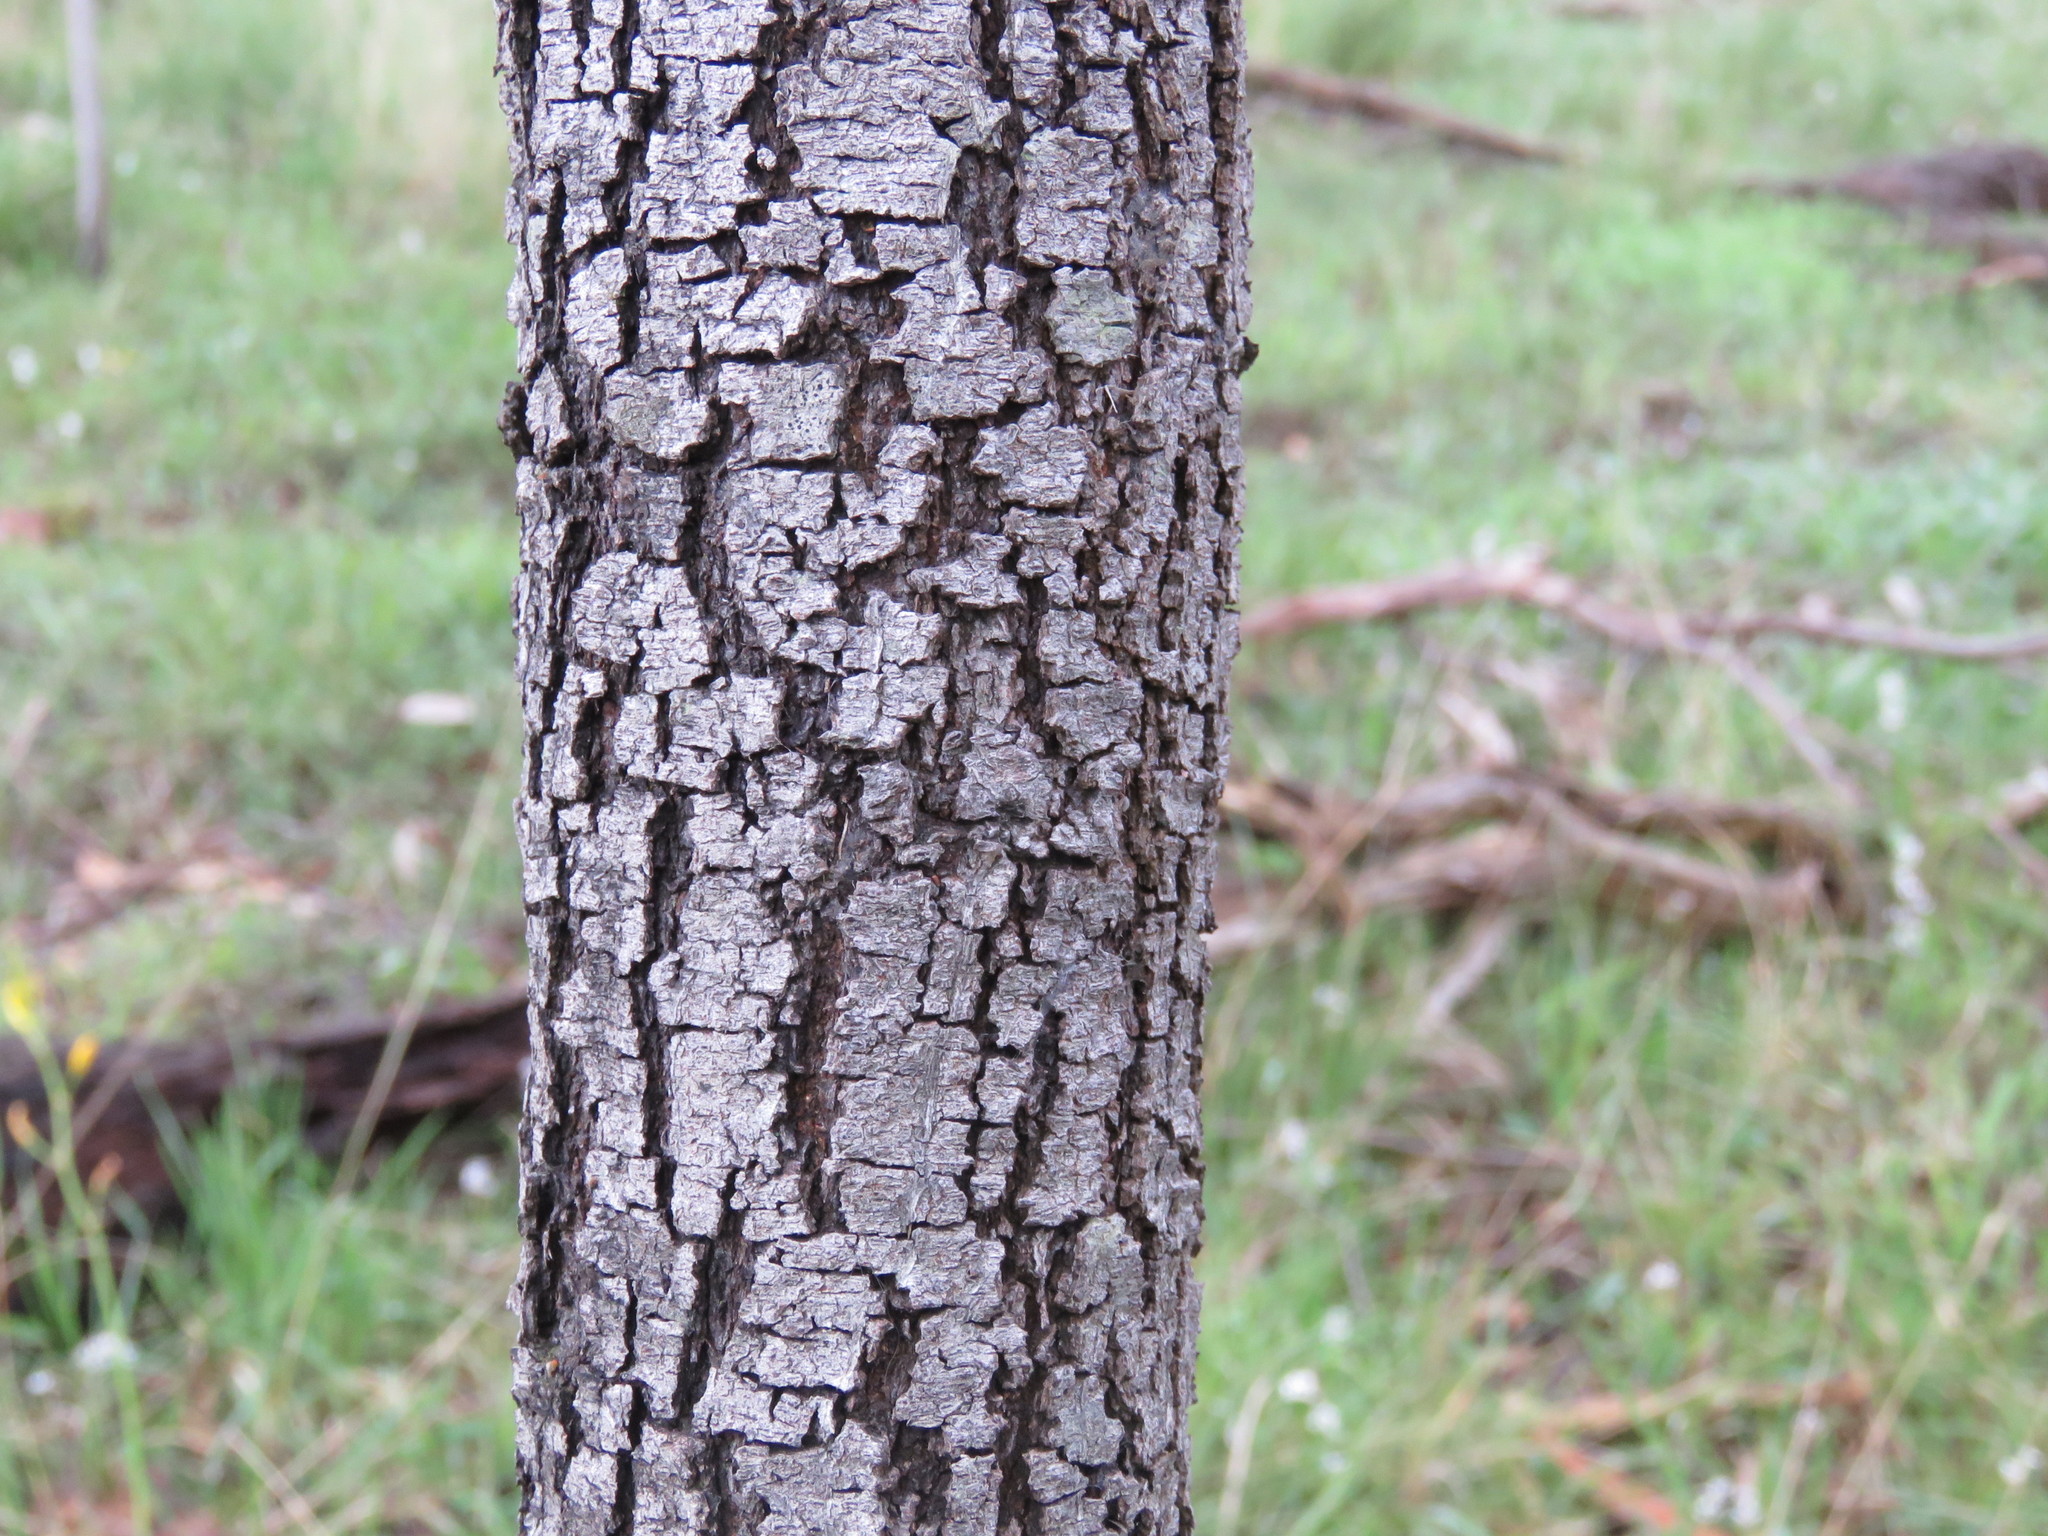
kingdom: Plantae
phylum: Tracheophyta
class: Magnoliopsida
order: Fabales
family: Fabaceae
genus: Acacia
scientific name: Acacia melanoxylon
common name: Blackwood
